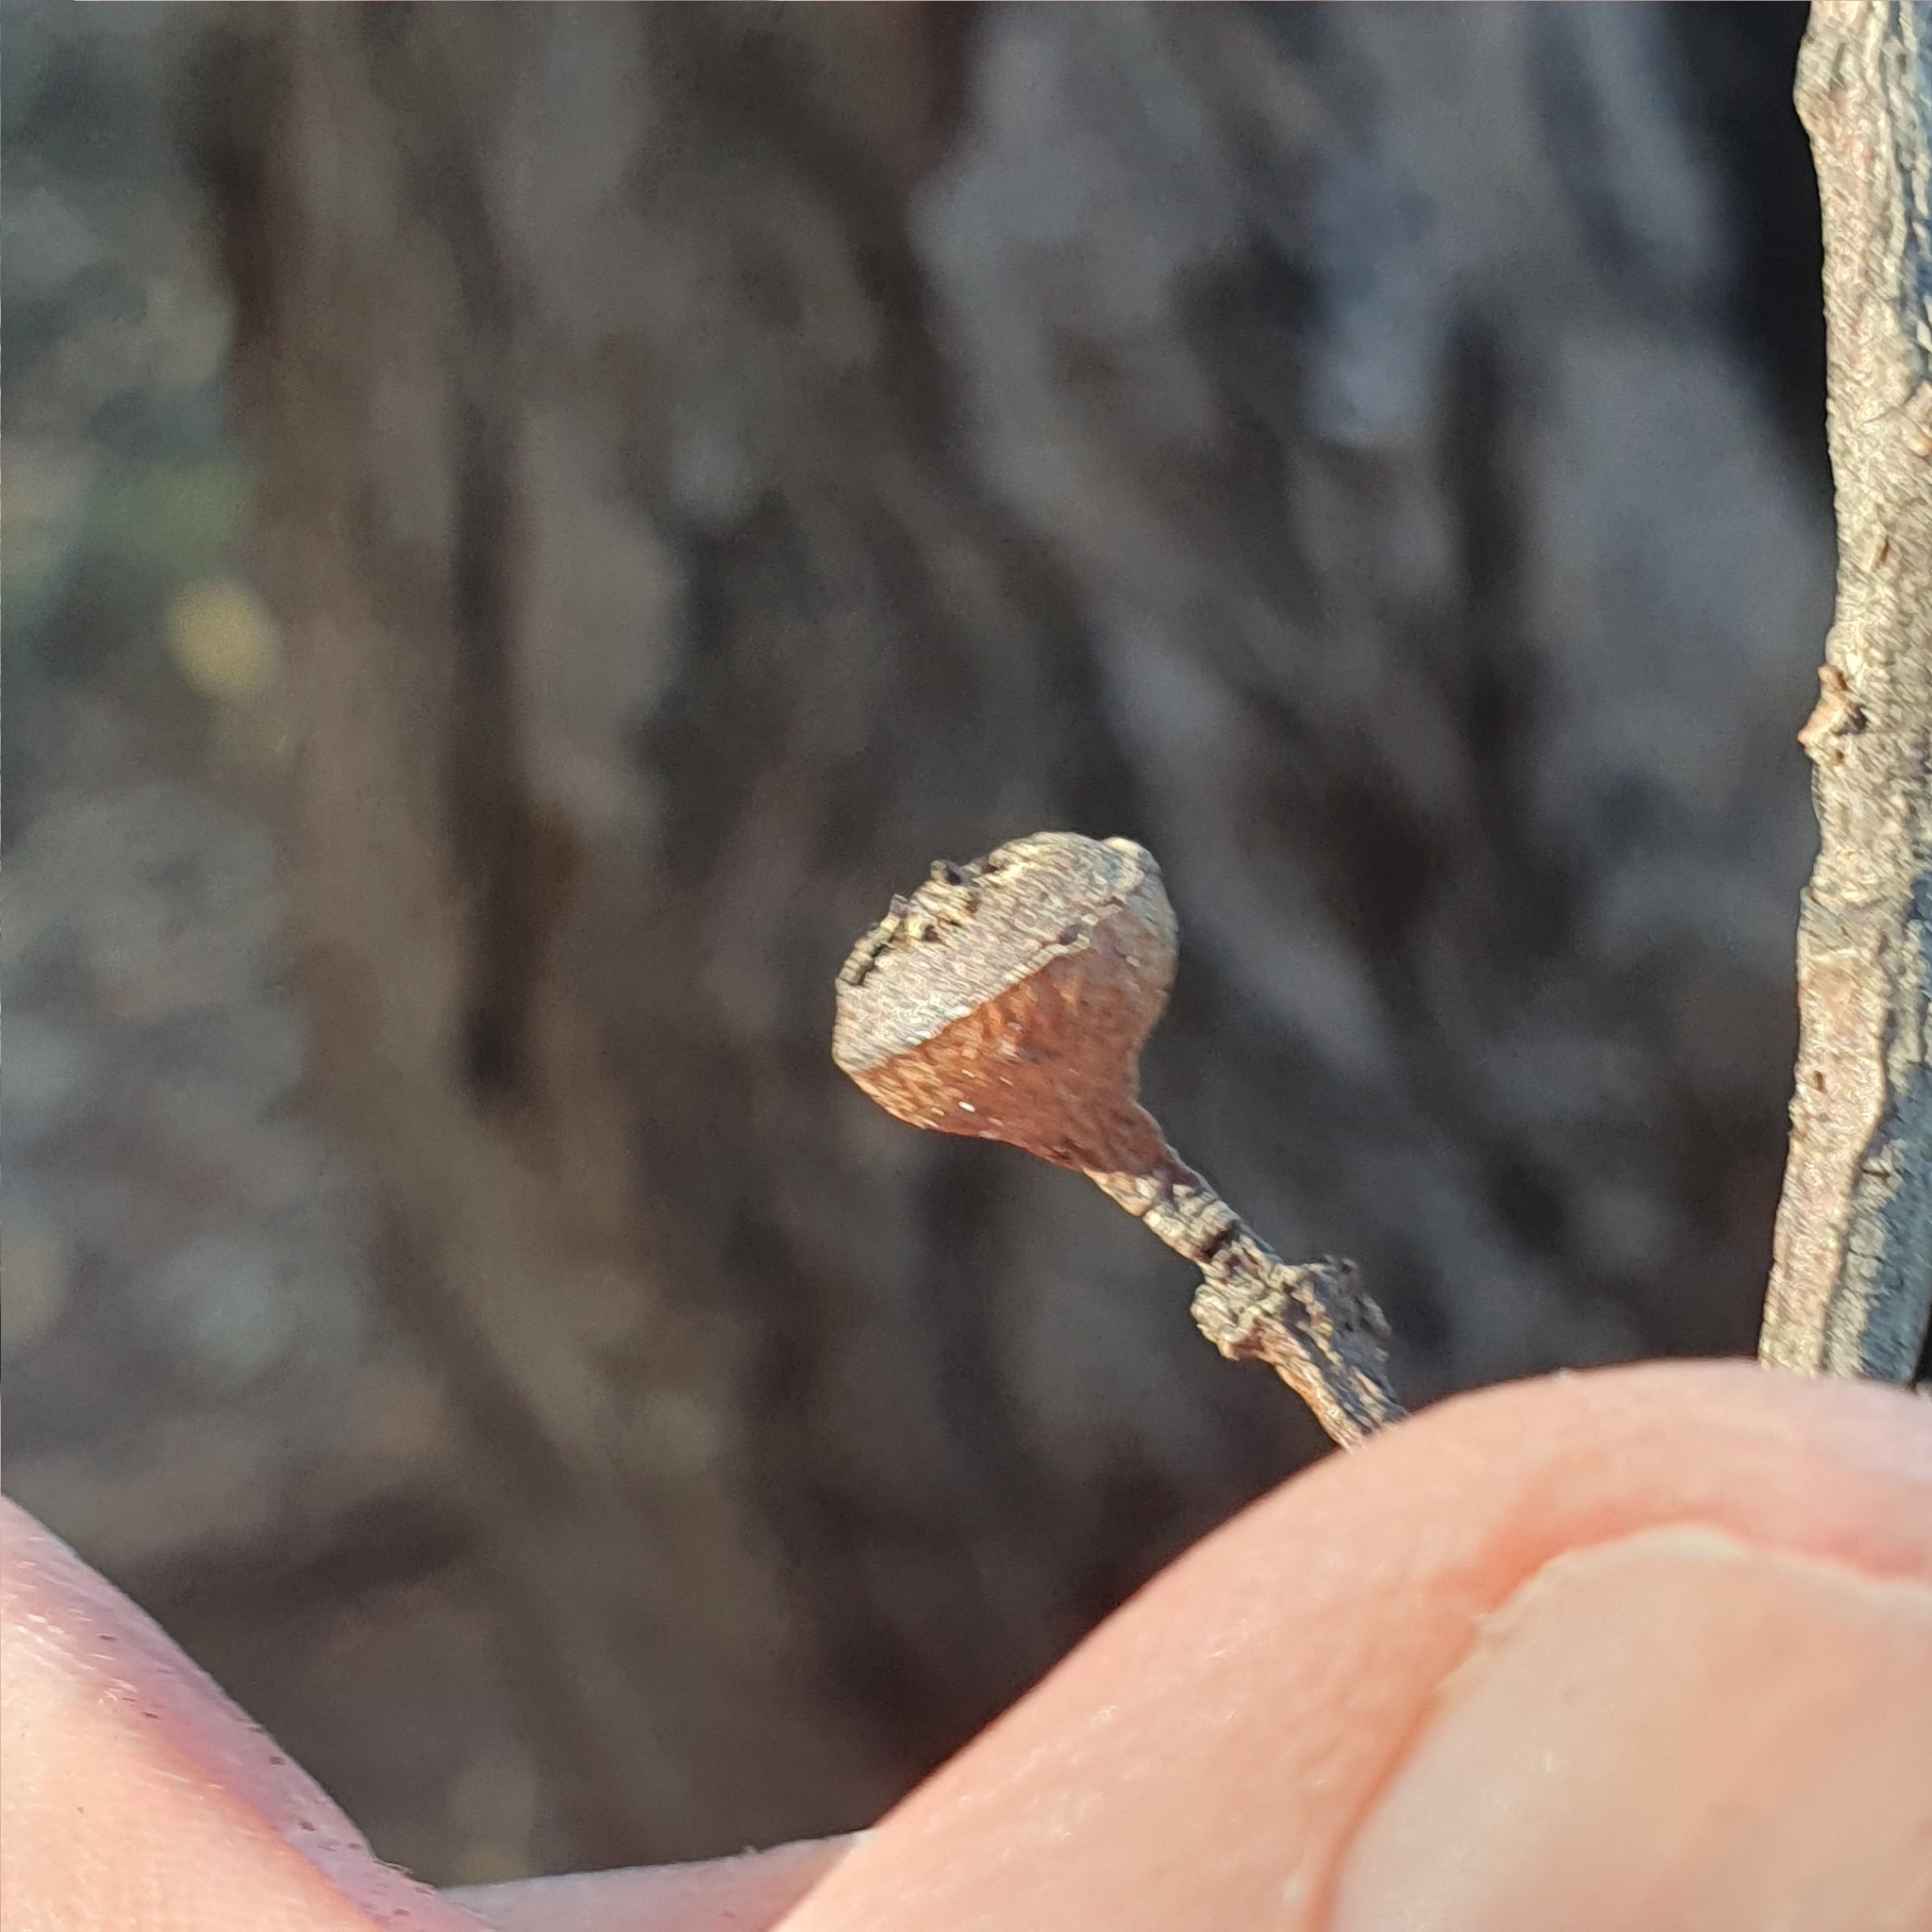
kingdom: Plantae
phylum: Tracheophyta
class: Magnoliopsida
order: Myrtales
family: Myrtaceae
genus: Eucalyptus
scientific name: Eucalyptus umbra
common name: White-mahogany
